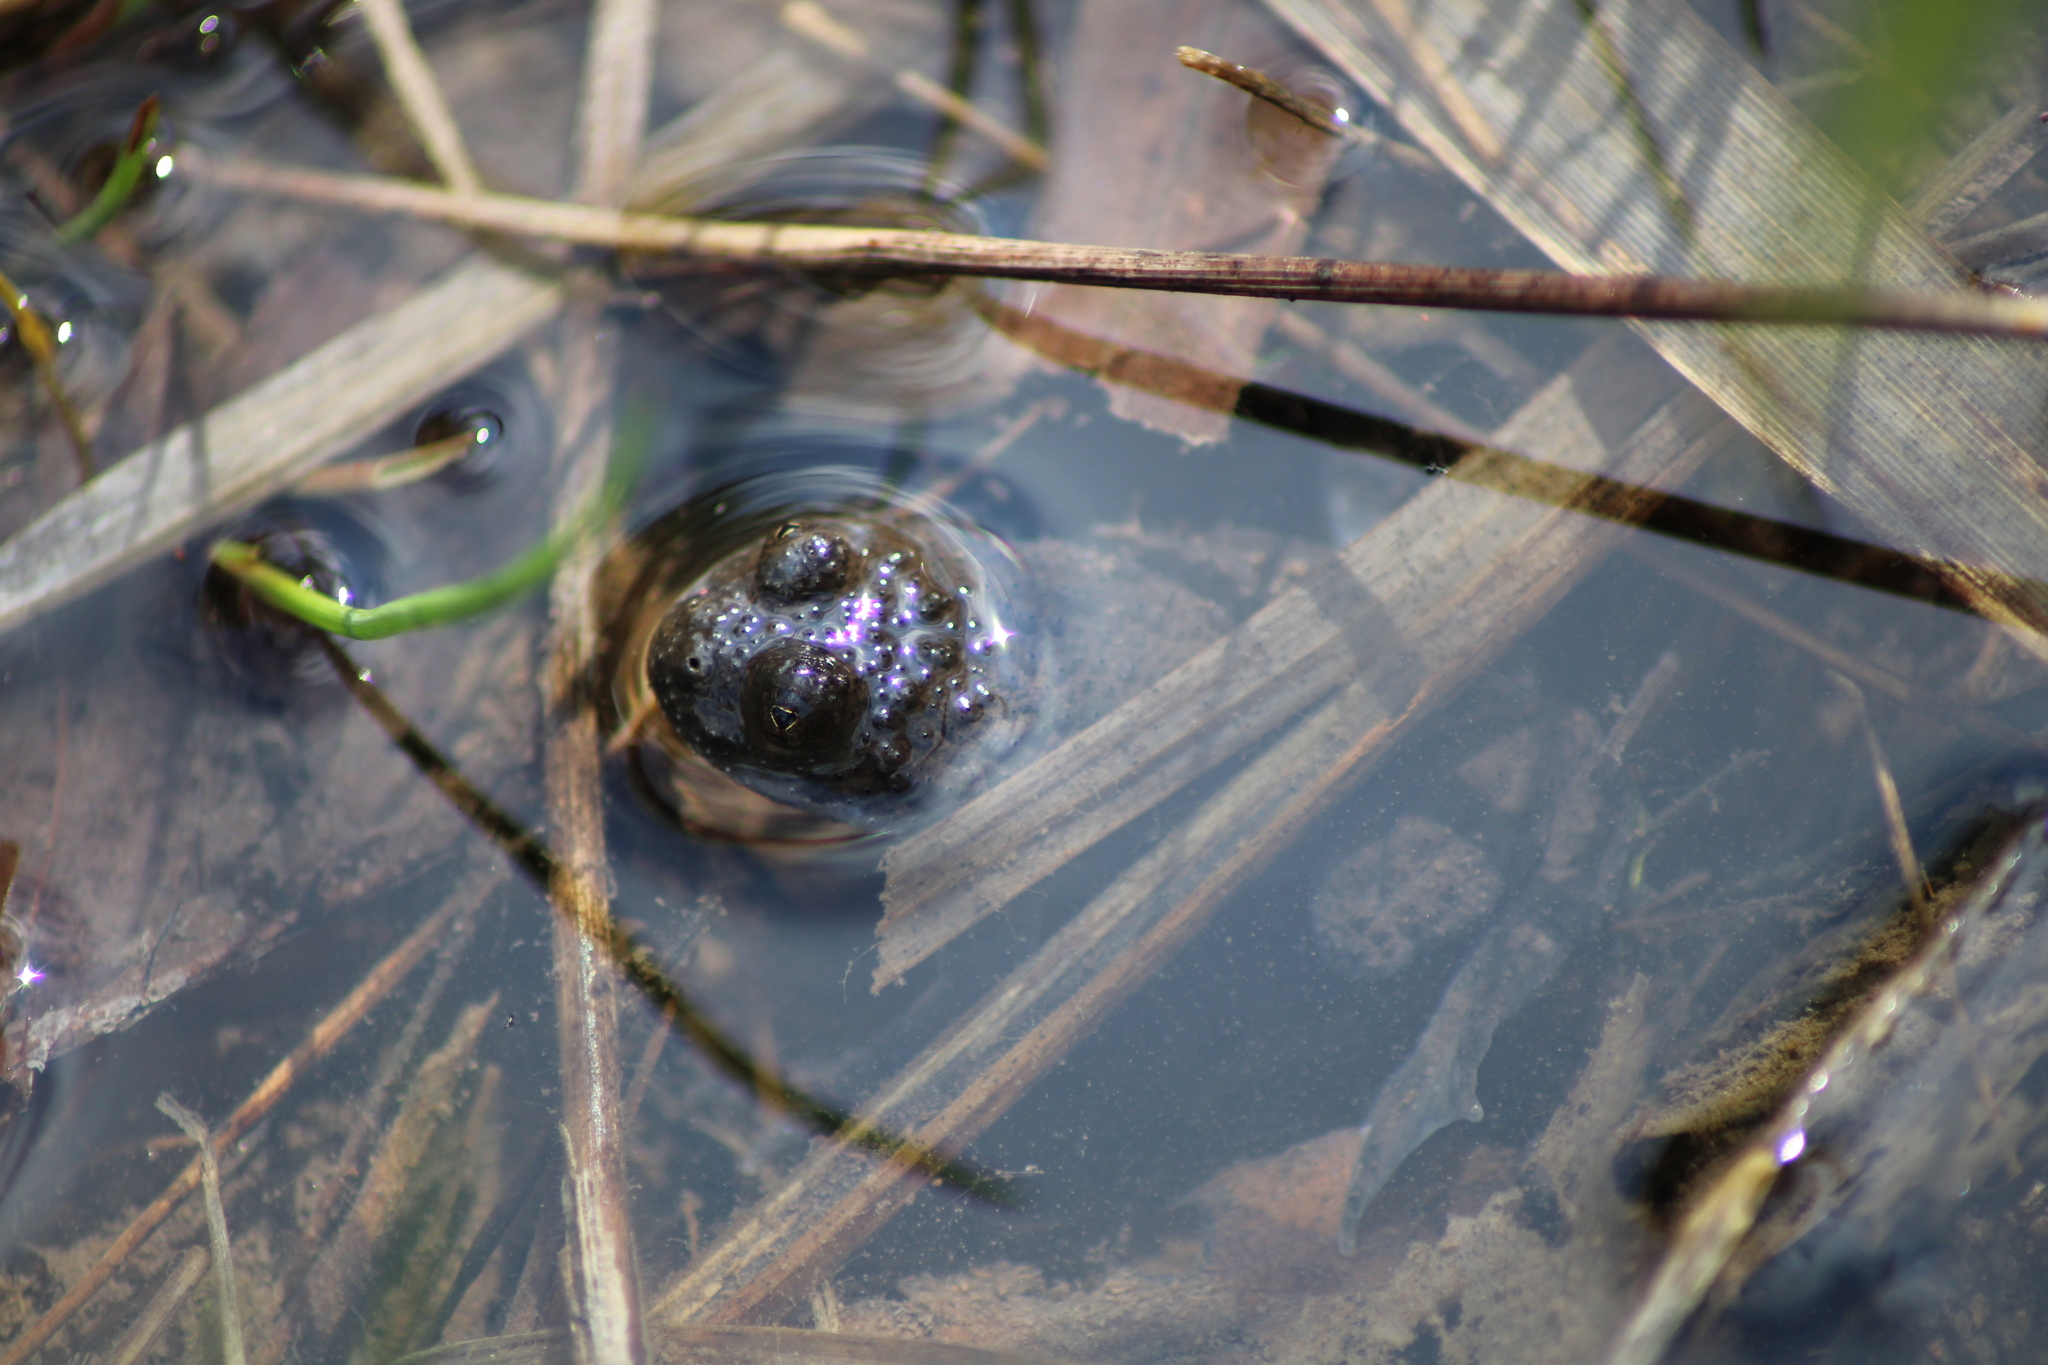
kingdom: Animalia
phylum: Chordata
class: Amphibia
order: Anura
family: Bombinatoridae
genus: Bombina
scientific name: Bombina variegata
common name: Yellow-bellied toad
